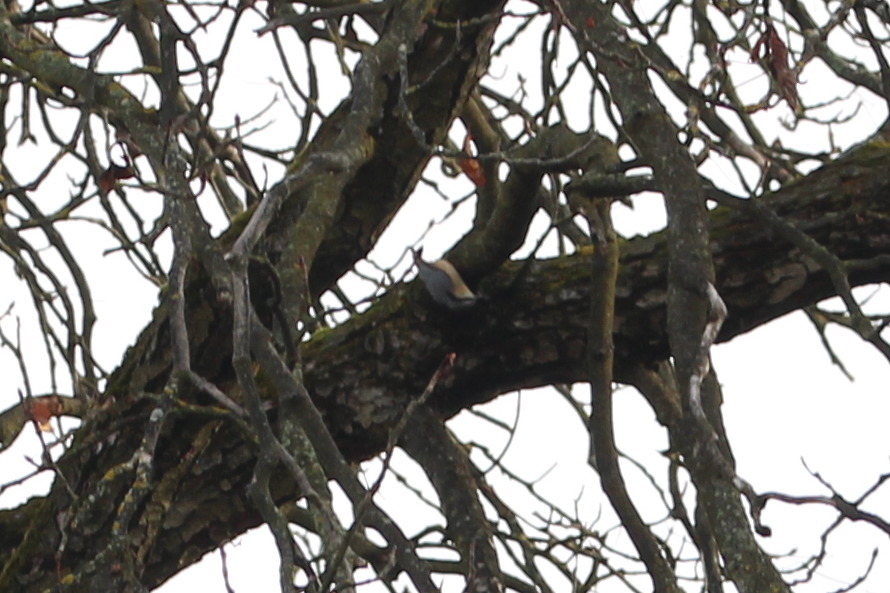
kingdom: Animalia
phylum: Chordata
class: Aves
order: Passeriformes
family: Sittidae
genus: Sitta
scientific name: Sitta europaea
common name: Eurasian nuthatch
